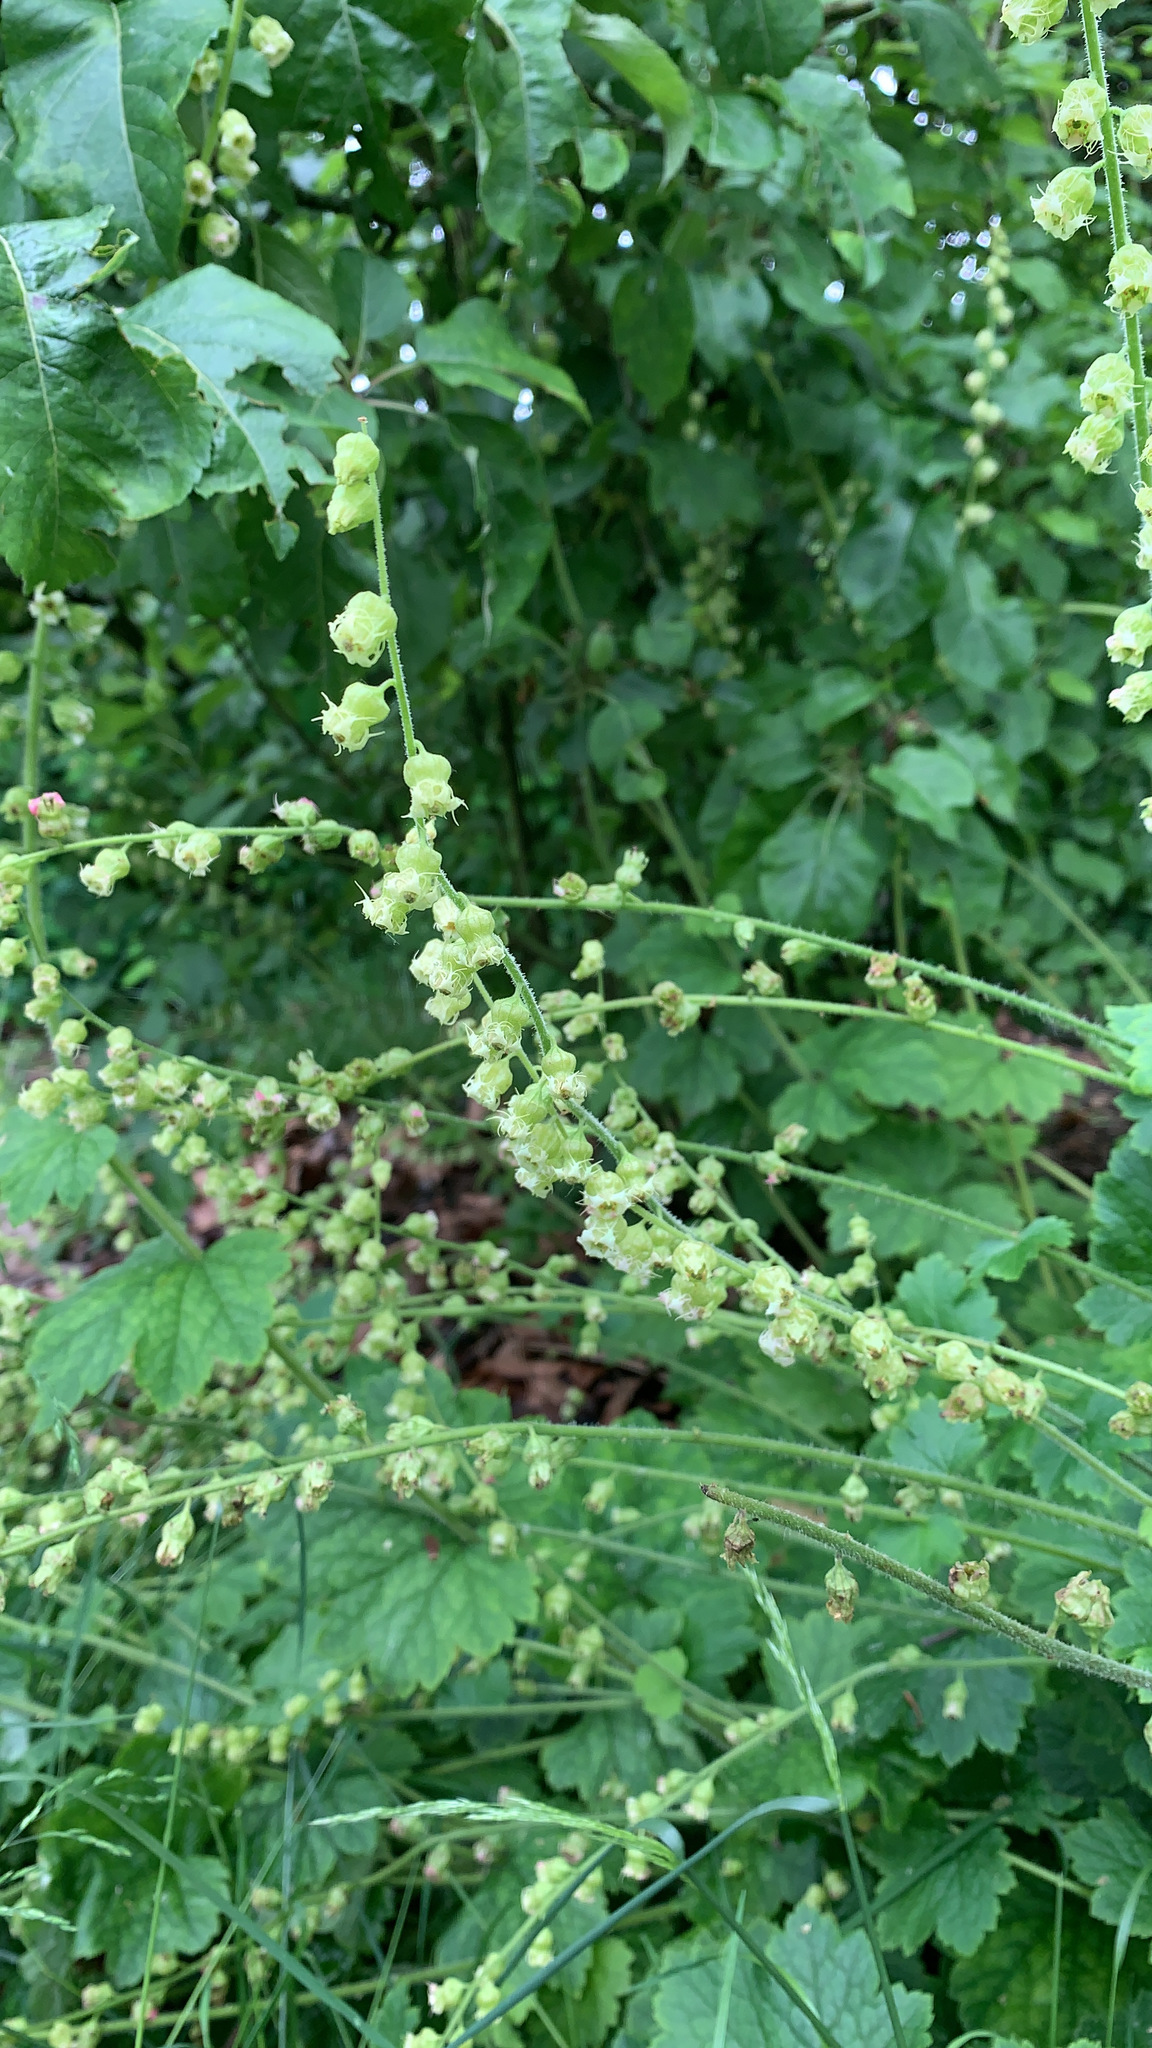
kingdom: Plantae
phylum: Tracheophyta
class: Magnoliopsida
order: Saxifragales
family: Saxifragaceae
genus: Tellima
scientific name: Tellima grandiflora
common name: Fringecups
